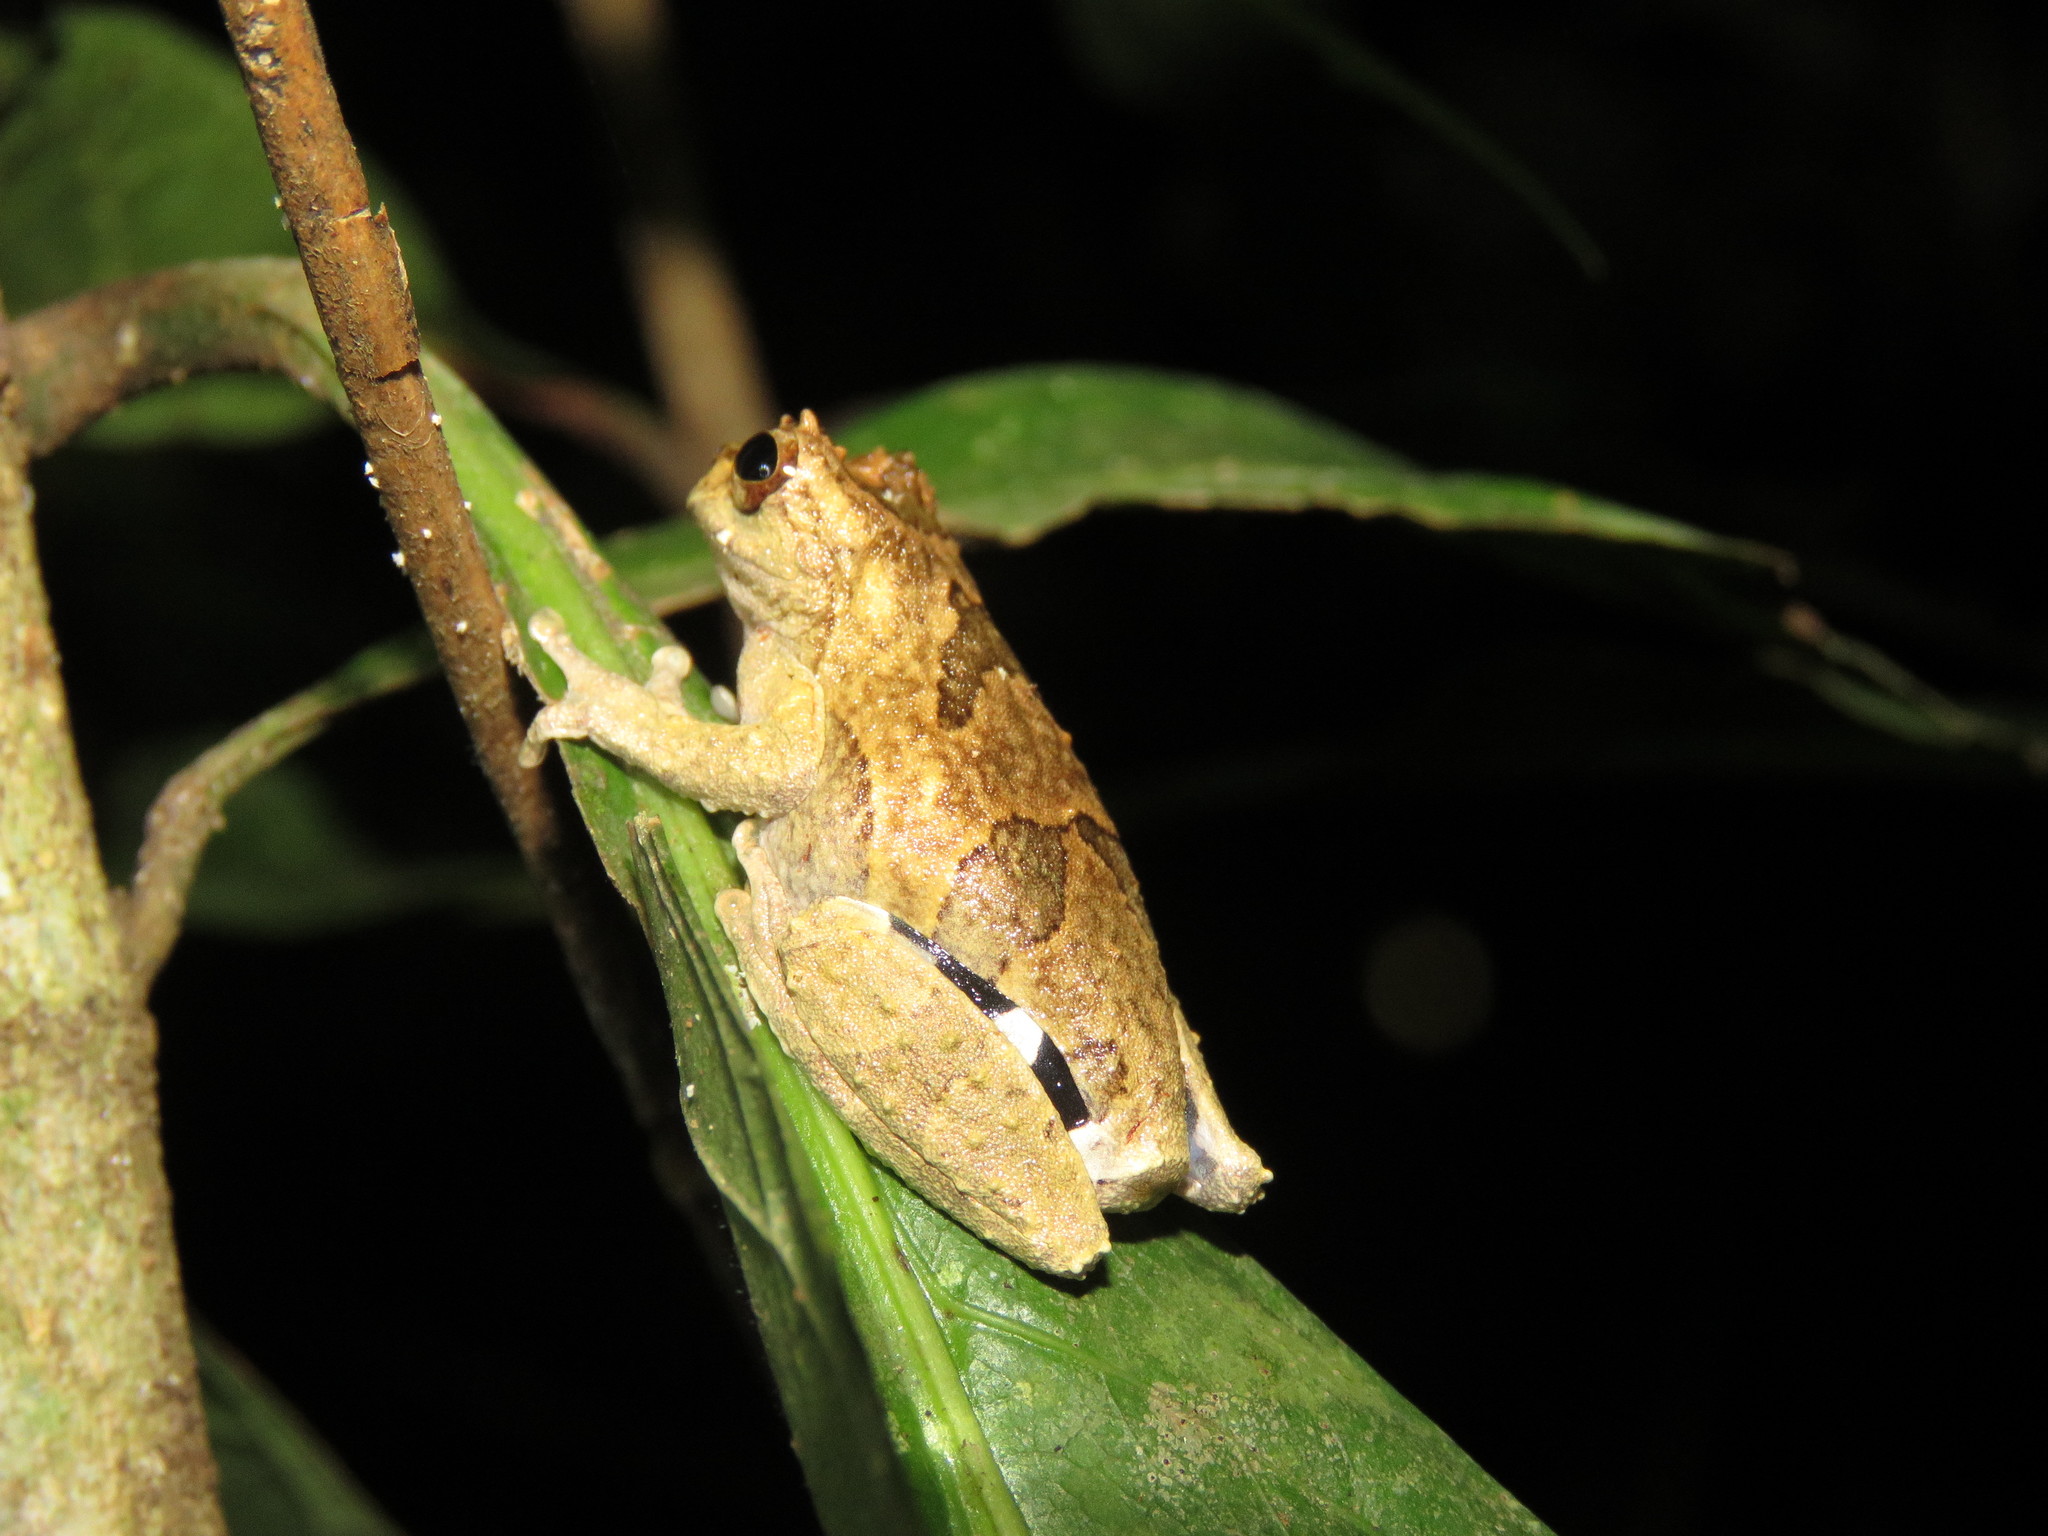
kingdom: Animalia
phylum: Chordata
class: Amphibia
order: Anura
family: Hylidae
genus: Dendropsophus
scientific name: Dendropsophus kamagarini
